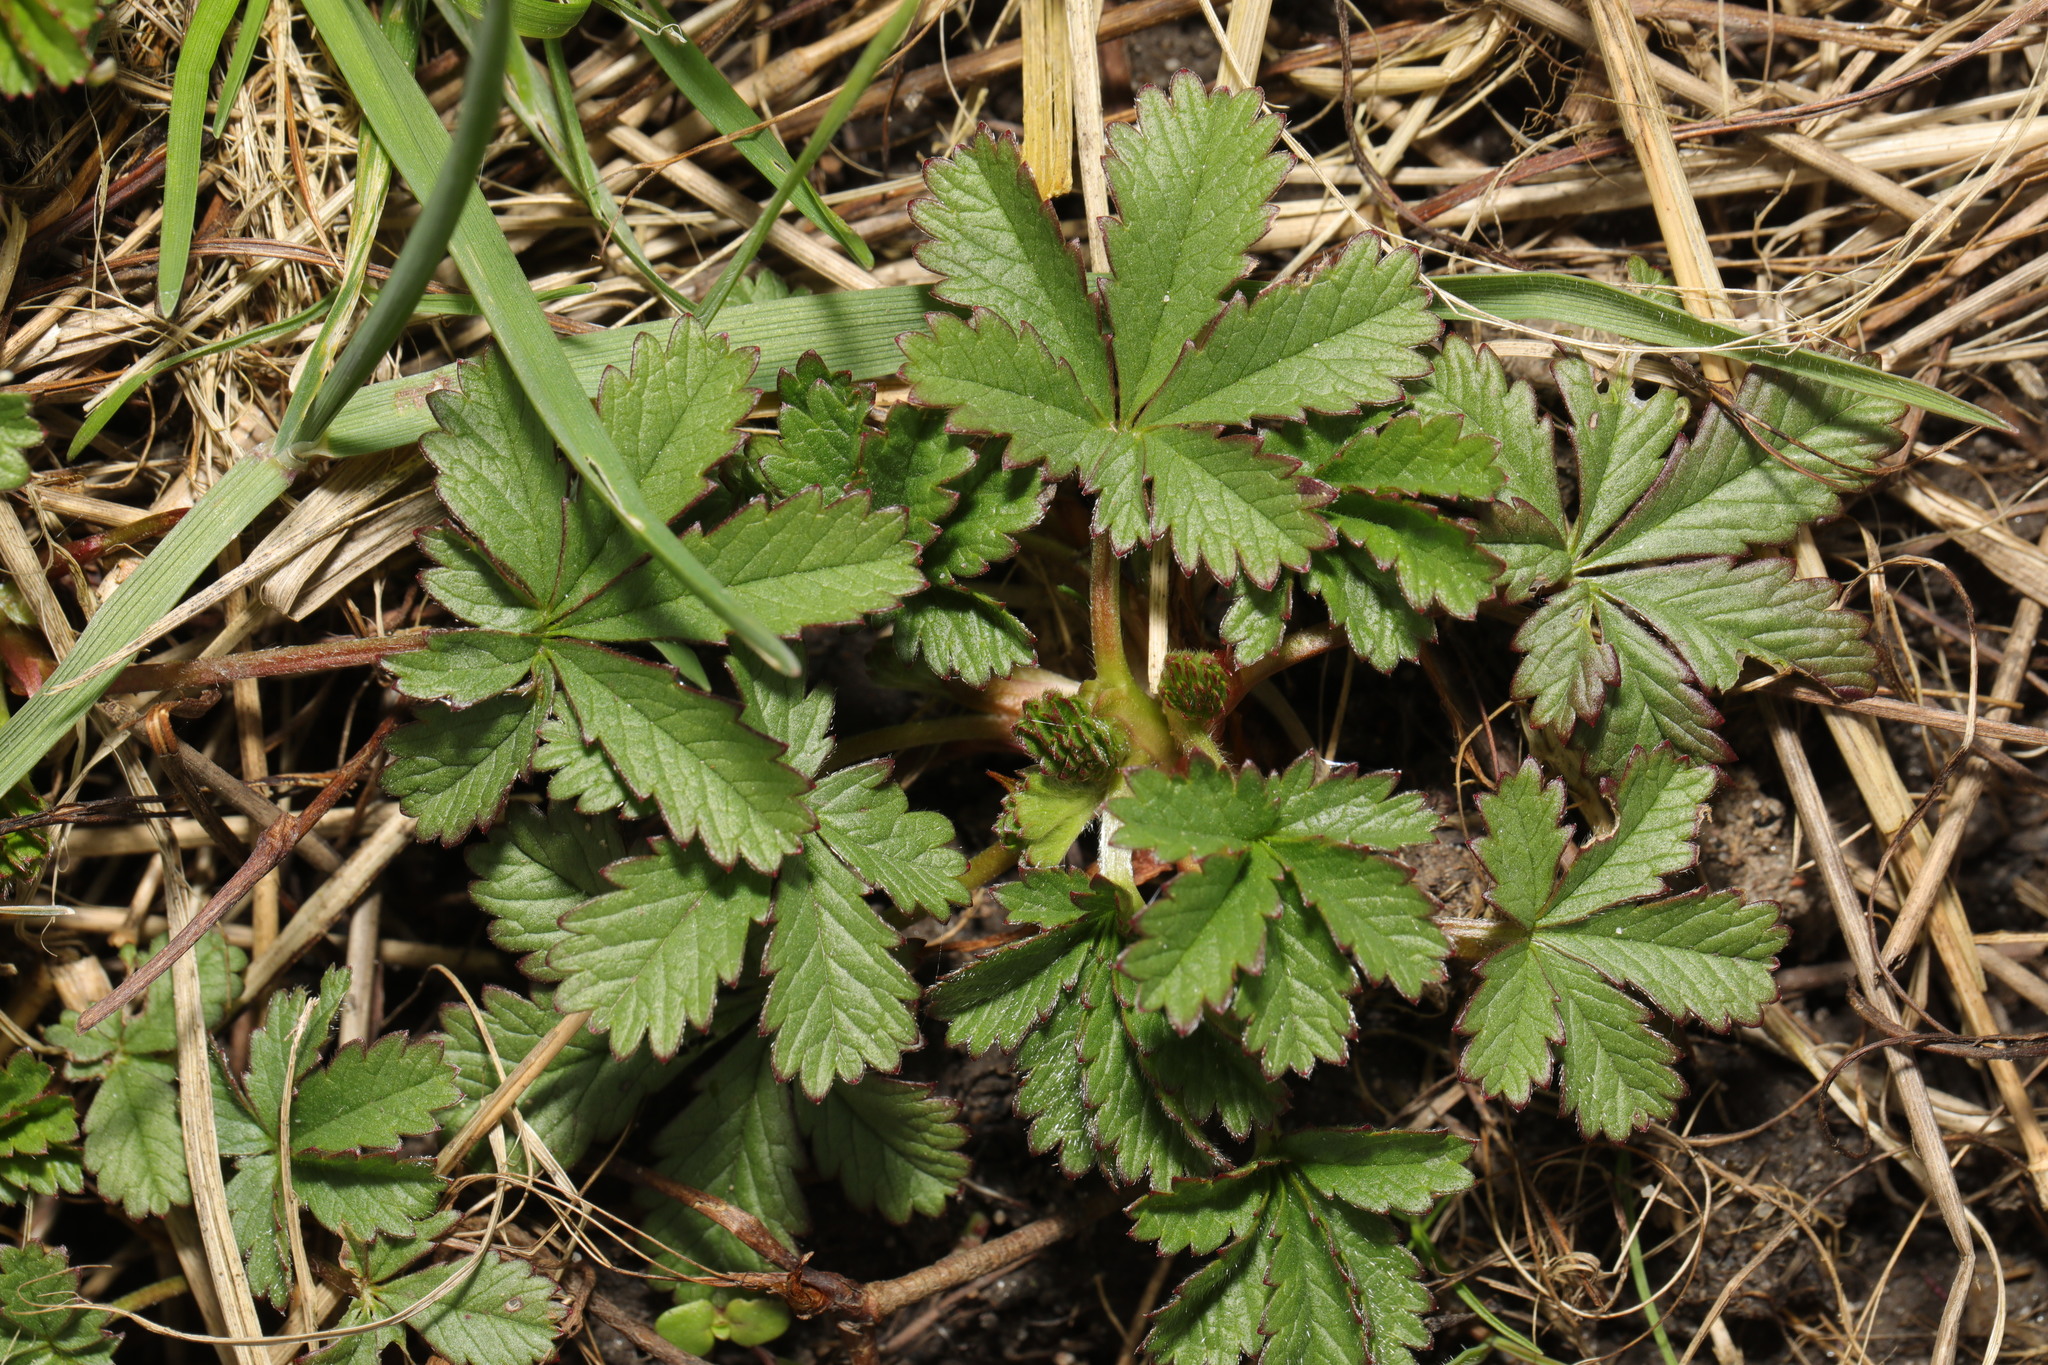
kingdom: Plantae
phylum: Tracheophyta
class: Magnoliopsida
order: Rosales
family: Rosaceae
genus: Potentilla
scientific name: Potentilla reptans
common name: Creeping cinquefoil
